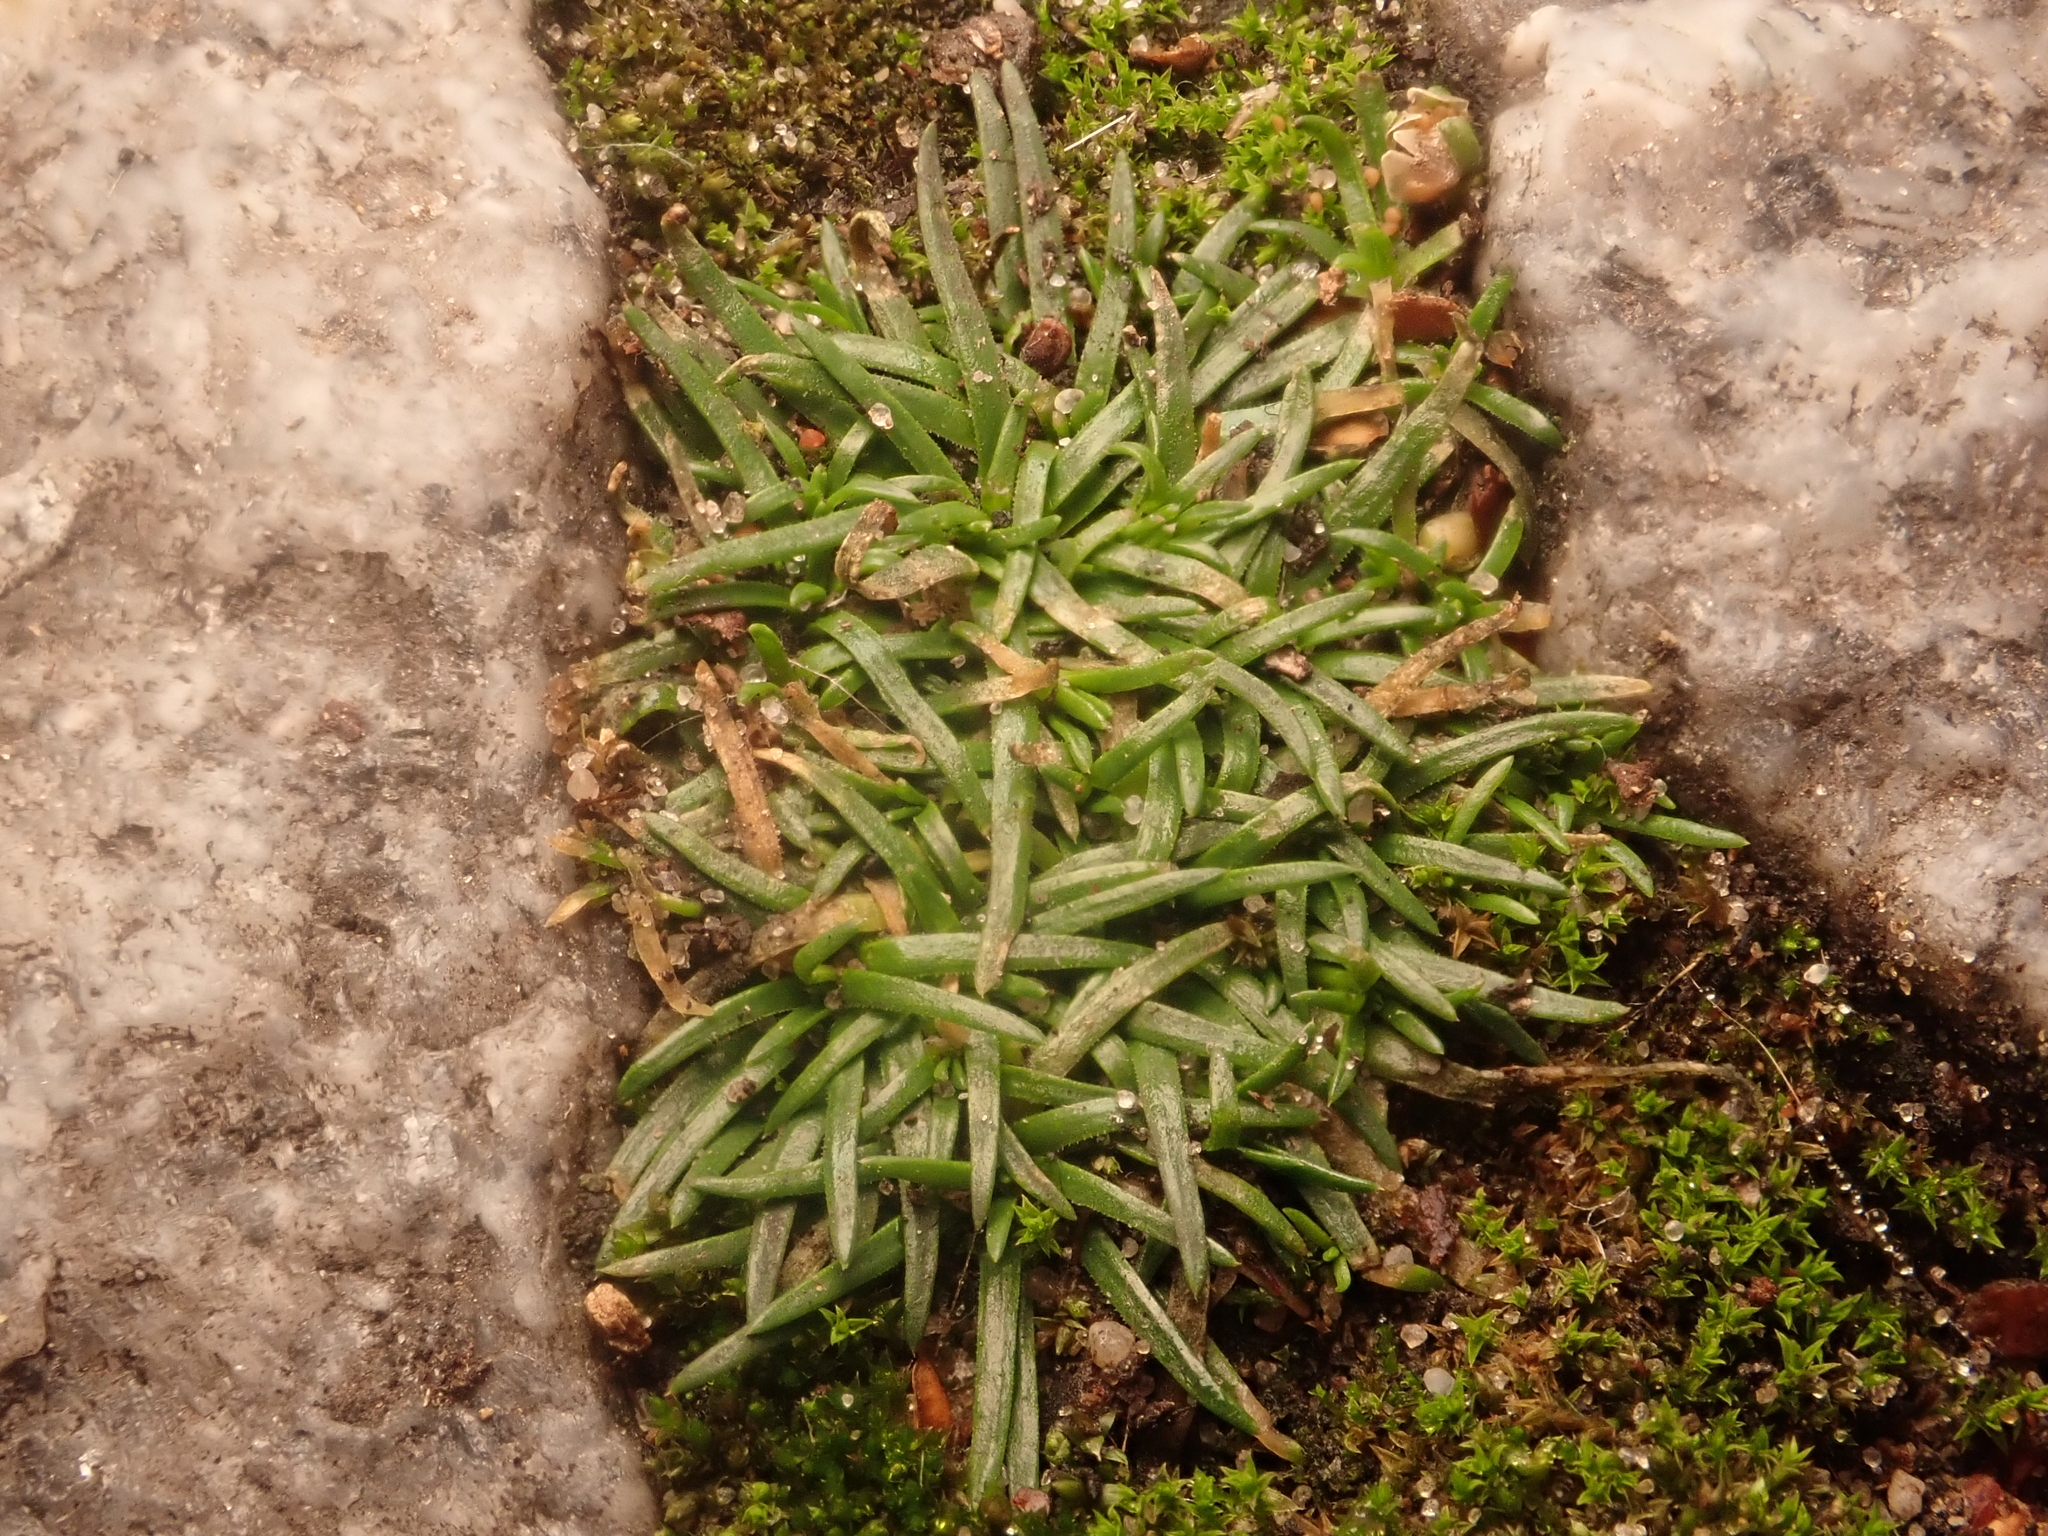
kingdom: Plantae
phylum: Tracheophyta
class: Magnoliopsida
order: Caryophyllales
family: Caryophyllaceae
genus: Sagina
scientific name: Sagina procumbens
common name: Procumbent pearlwort
